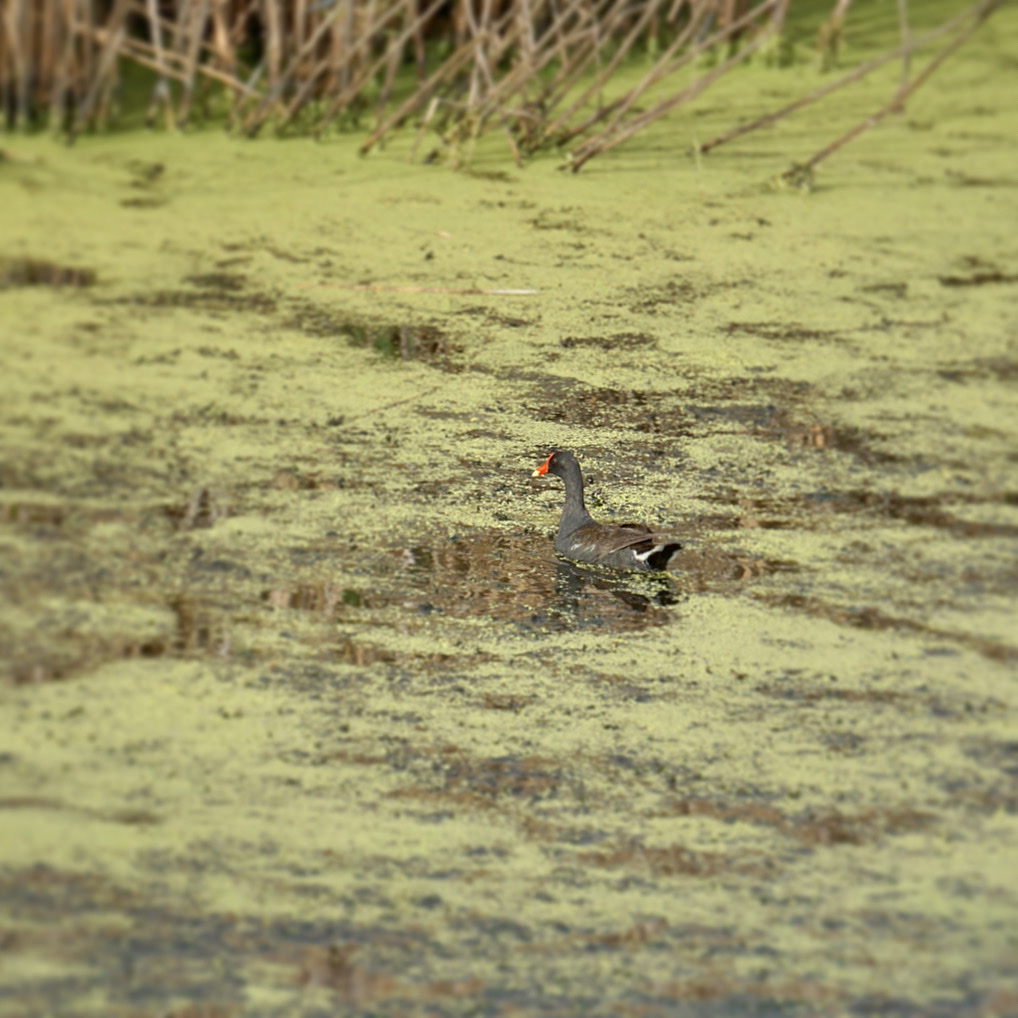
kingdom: Animalia
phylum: Chordata
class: Aves
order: Gruiformes
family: Rallidae
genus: Gallinula
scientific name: Gallinula chloropus
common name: Common moorhen
